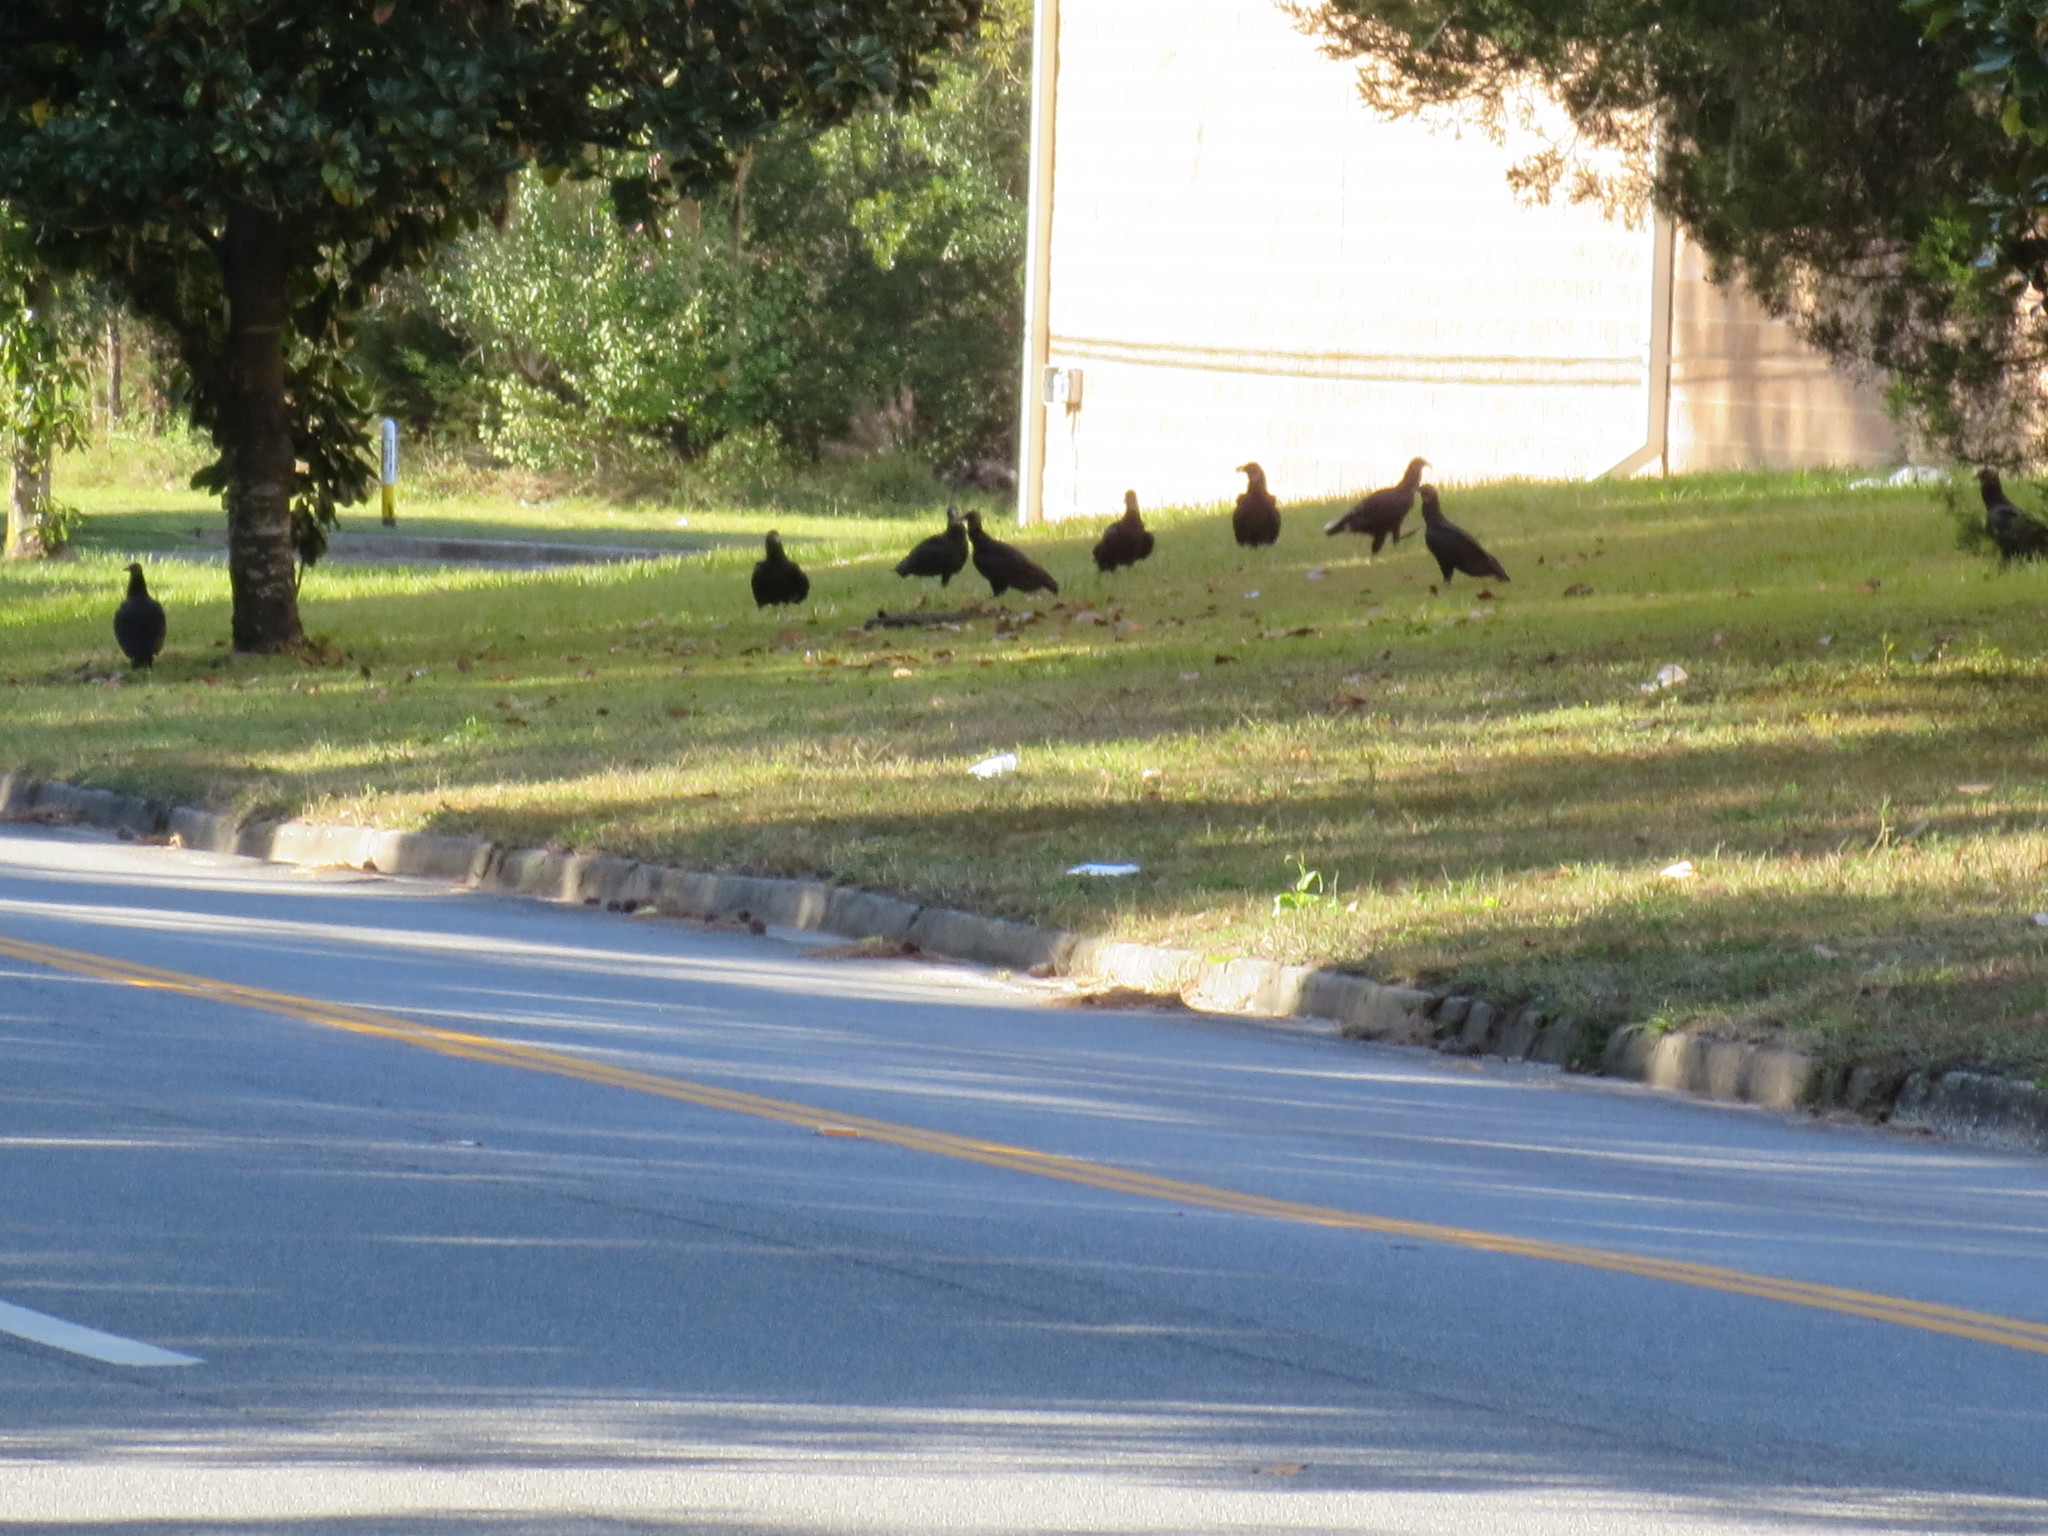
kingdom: Animalia
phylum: Chordata
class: Aves
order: Accipitriformes
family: Cathartidae
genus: Coragyps
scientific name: Coragyps atratus
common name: Black vulture
